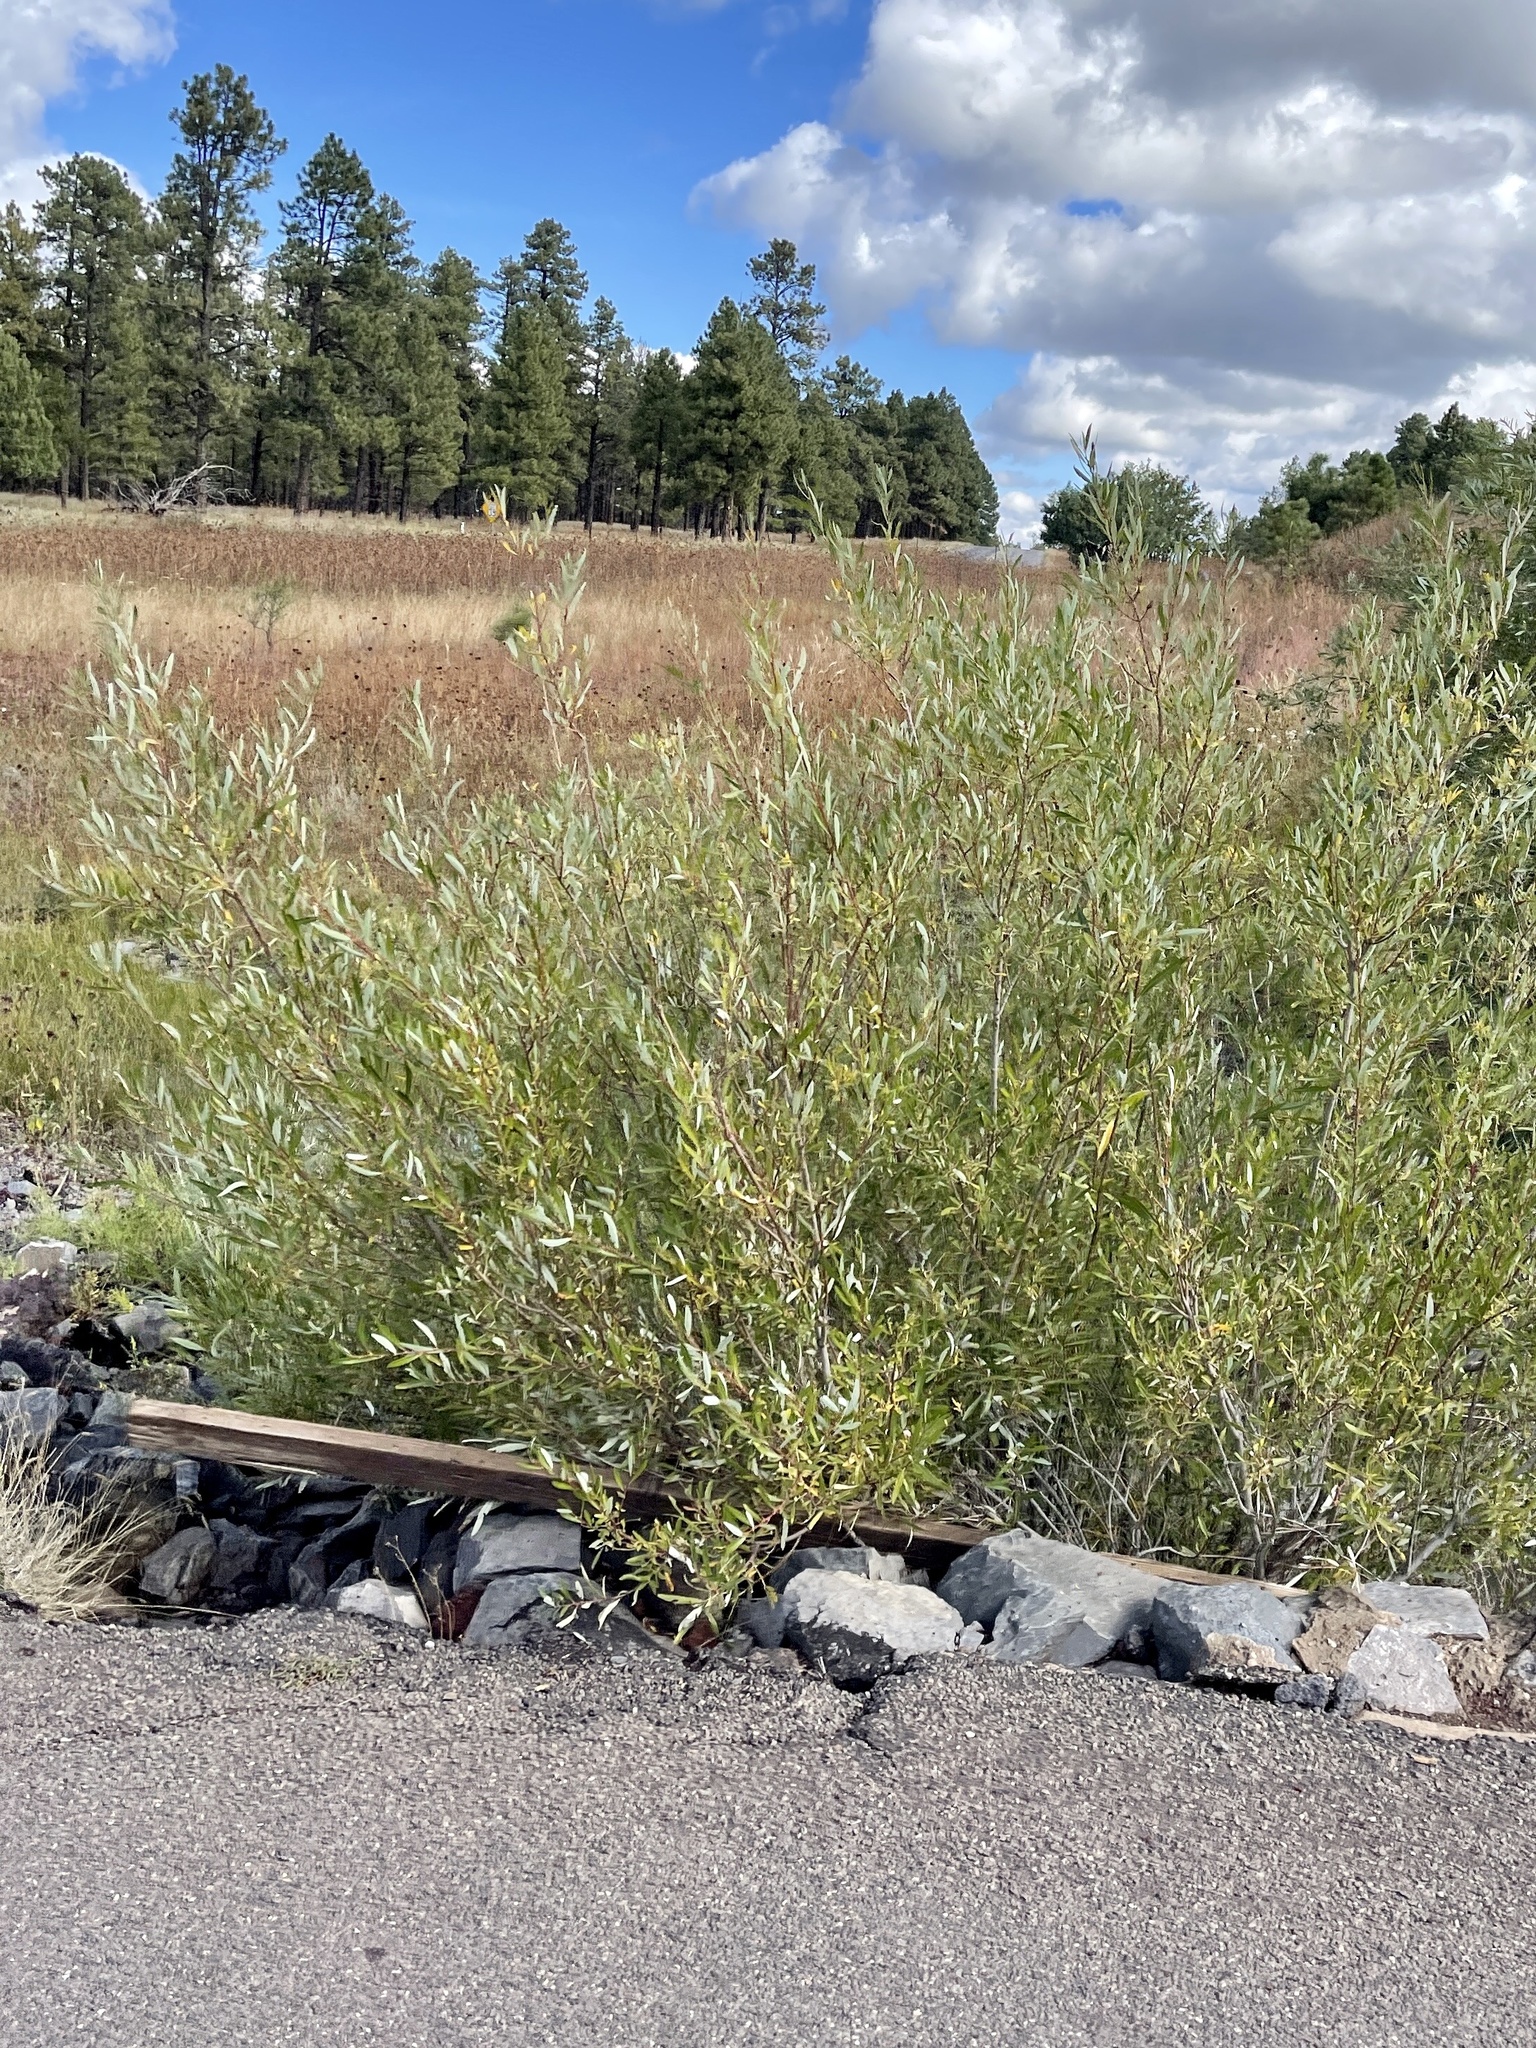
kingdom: Plantae
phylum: Tracheophyta
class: Magnoliopsida
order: Malpighiales
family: Salicaceae
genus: Salix
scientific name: Salix lasiolepis
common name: Arroyo willow
